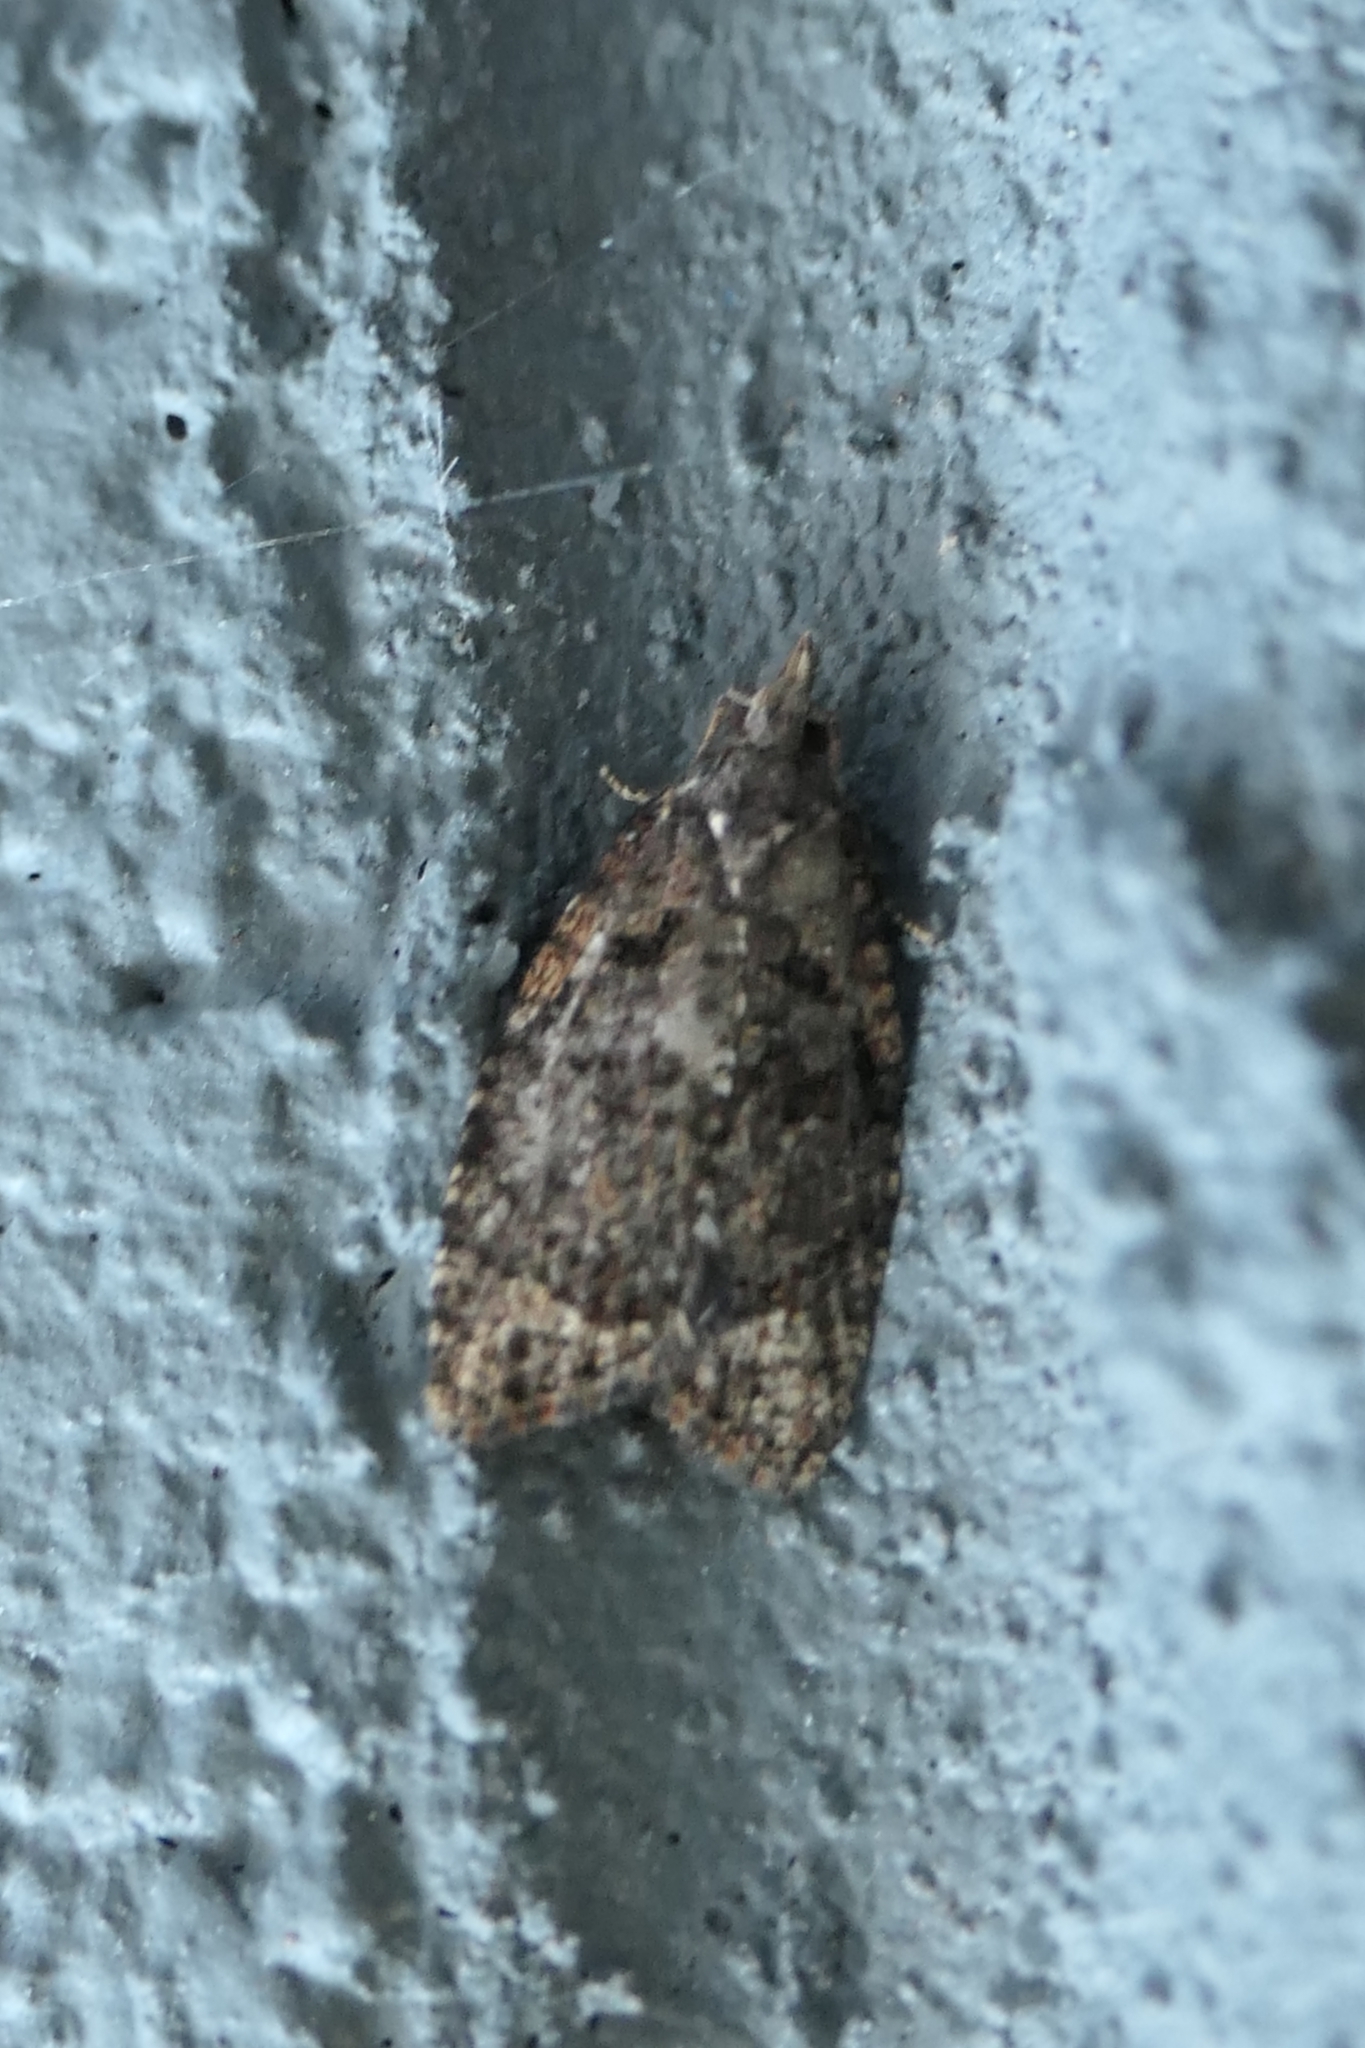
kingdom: Animalia
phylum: Arthropoda
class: Insecta
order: Lepidoptera
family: Tortricidae
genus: Capua
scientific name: Capua intractana
